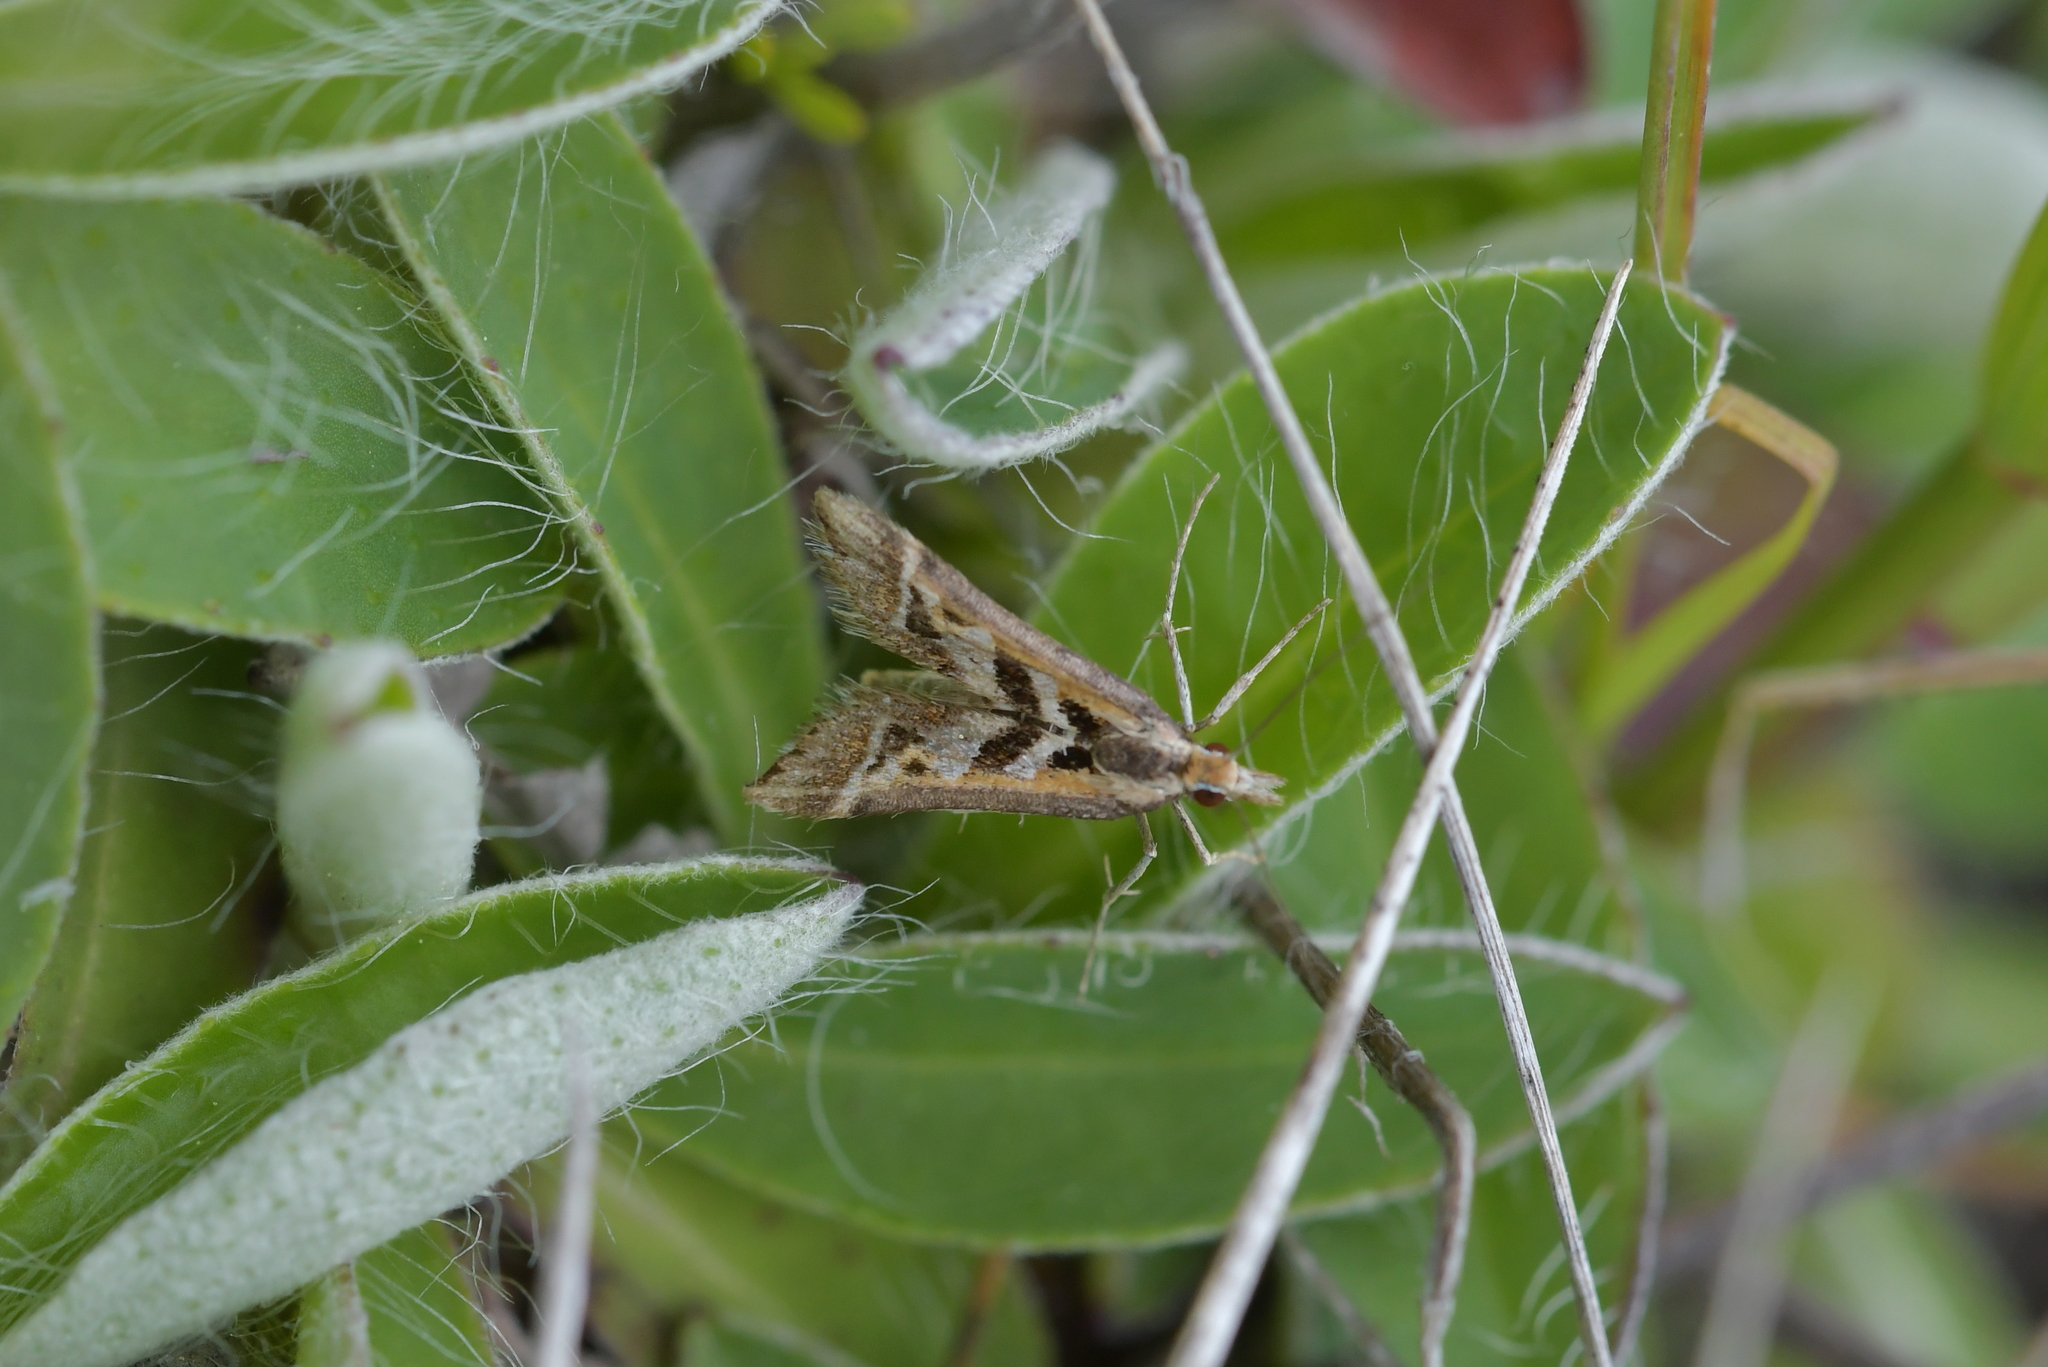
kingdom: Animalia
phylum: Arthropoda
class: Insecta
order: Lepidoptera
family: Crambidae
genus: Diasemia
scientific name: Diasemia grammalis
